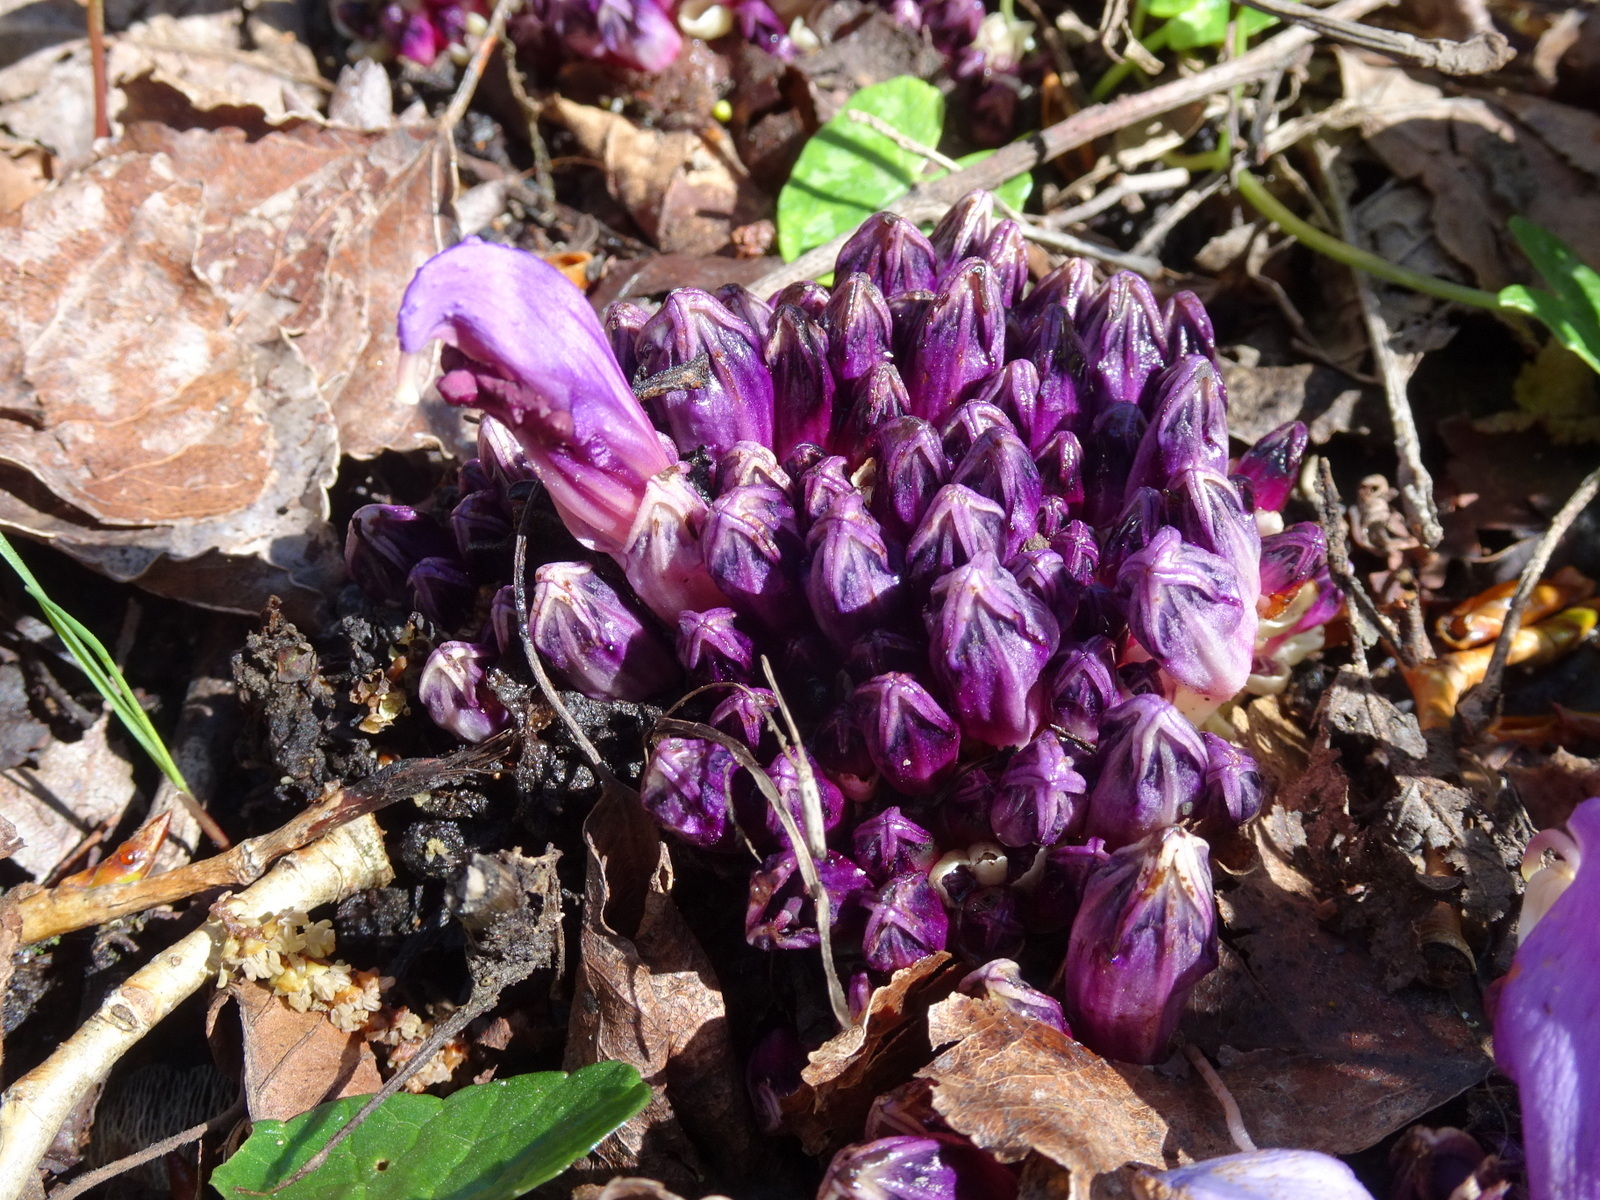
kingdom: Plantae
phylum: Tracheophyta
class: Magnoliopsida
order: Lamiales
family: Orobanchaceae
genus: Lathraea
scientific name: Lathraea clandestina
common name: Purple toothwort
